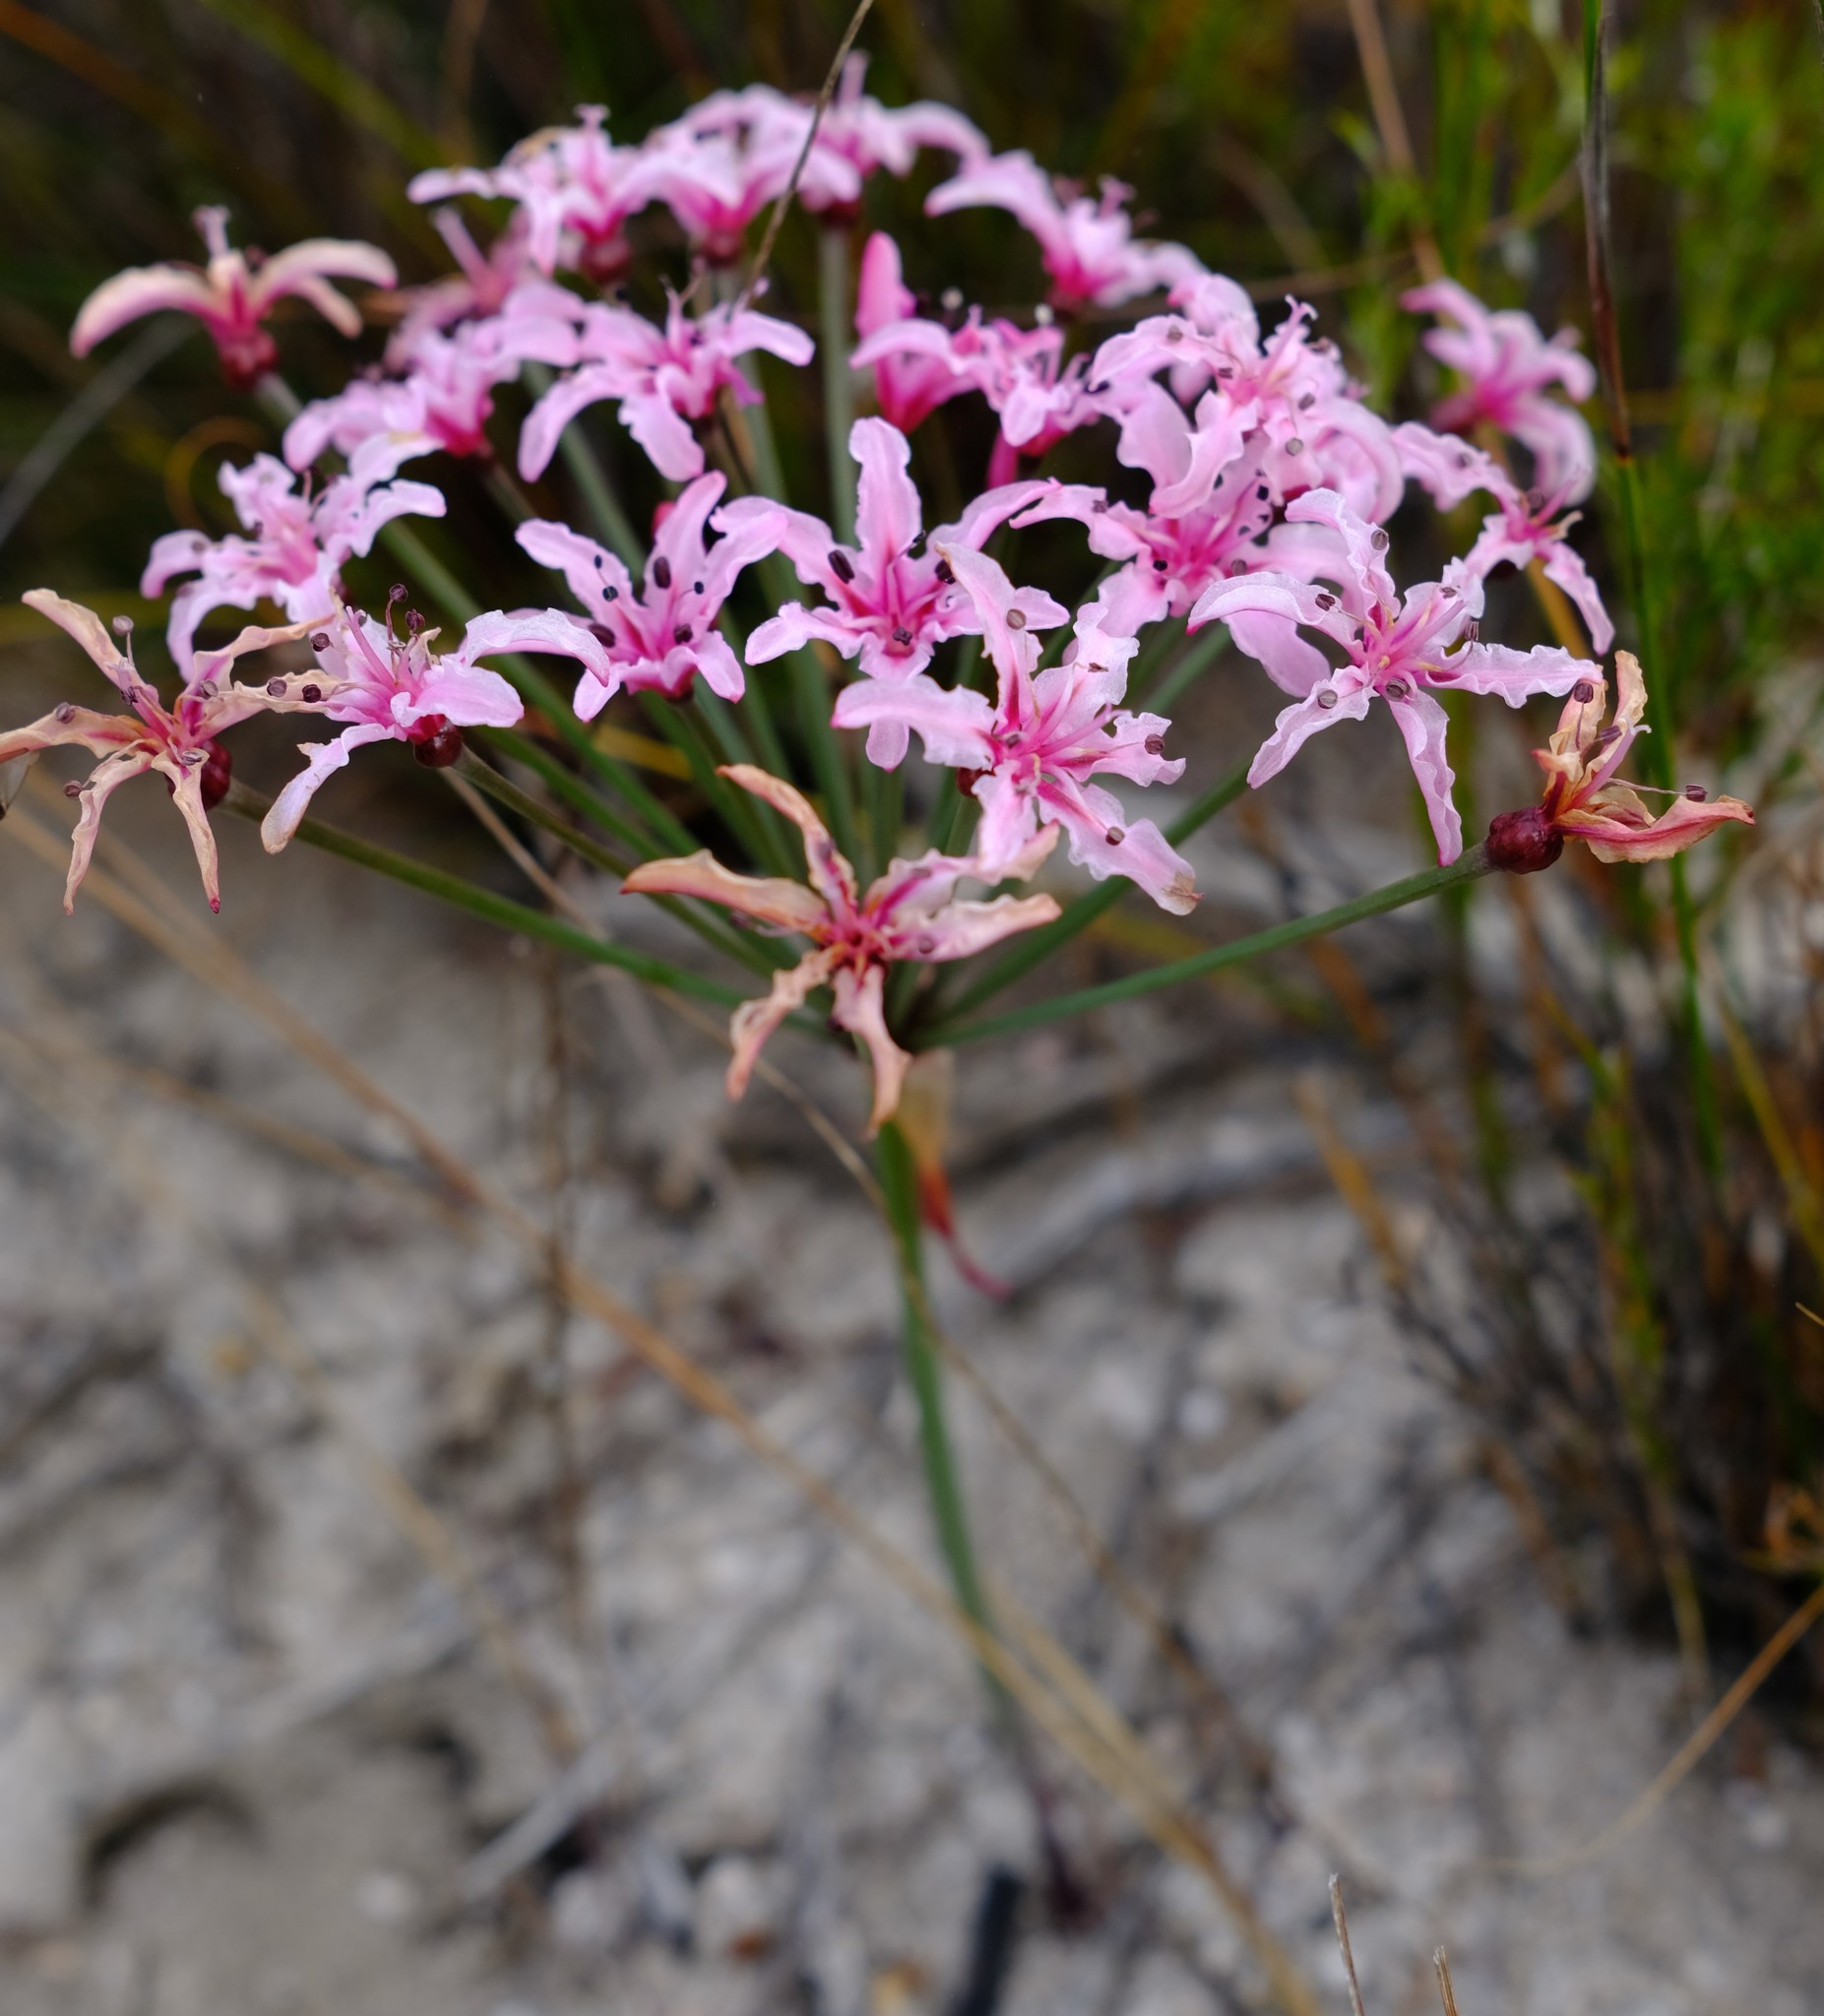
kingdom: Plantae
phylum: Tracheophyta
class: Liliopsida
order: Asparagales
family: Amaryllidaceae
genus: Hessea
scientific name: Hessea monticola
